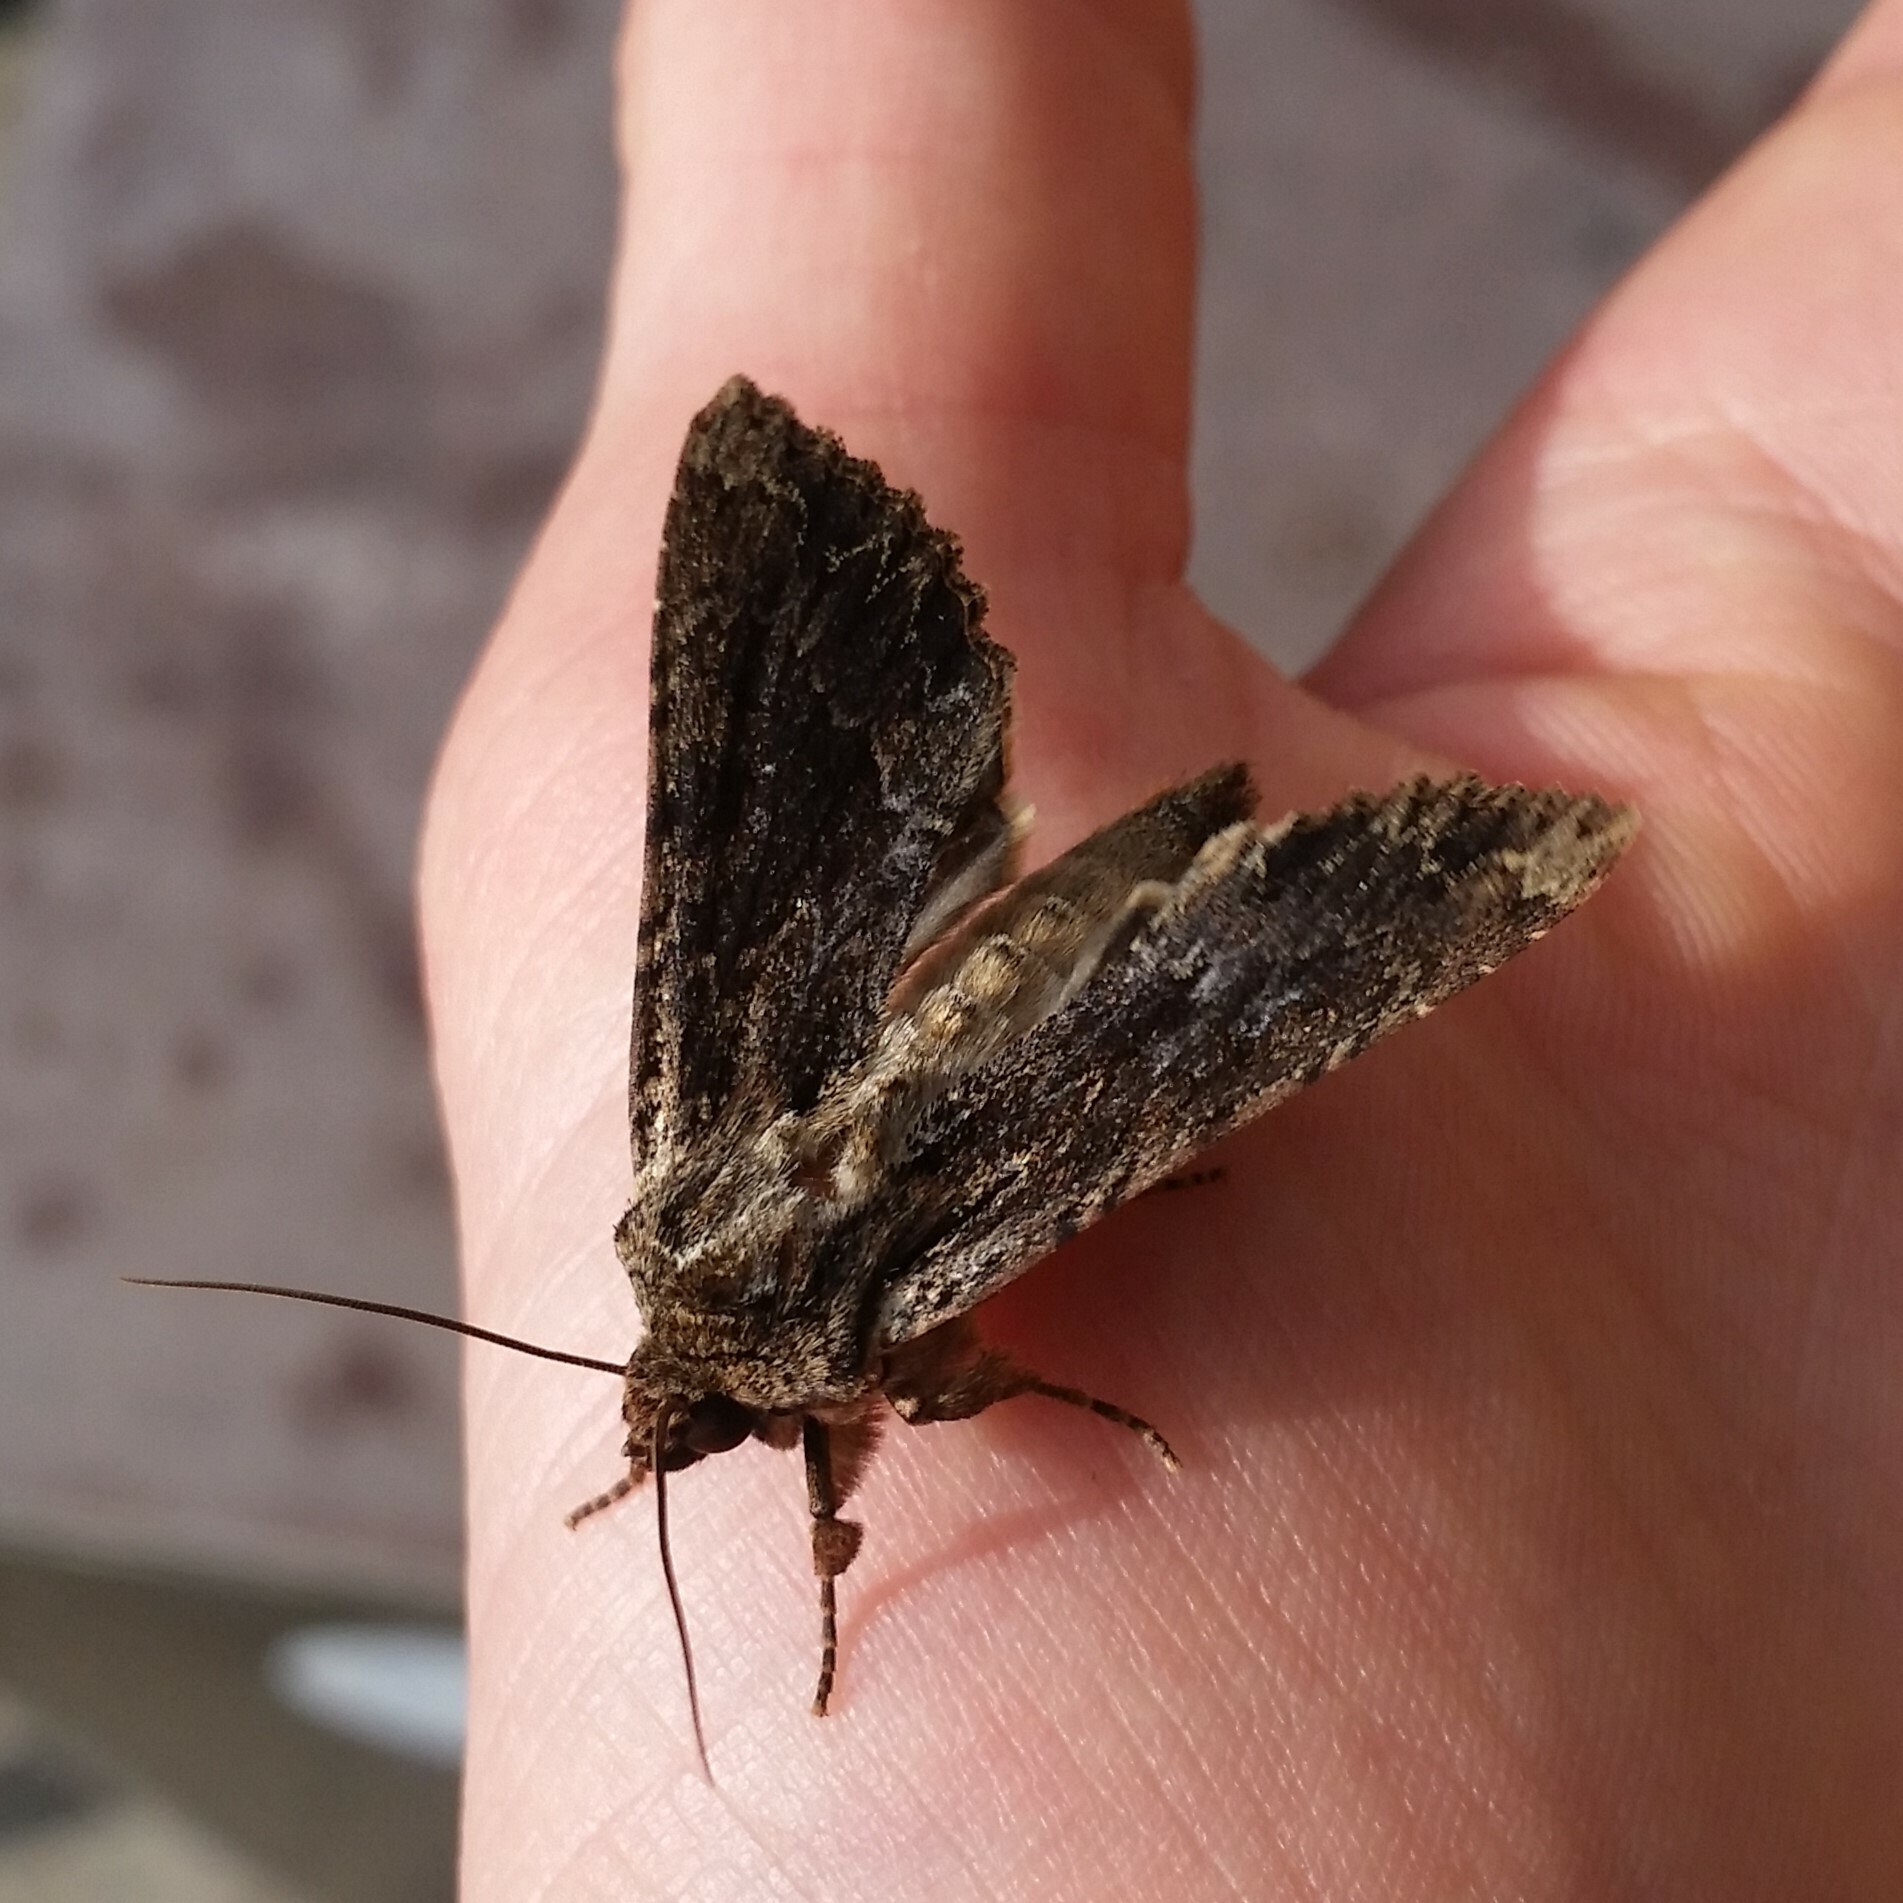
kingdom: Animalia
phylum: Arthropoda
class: Insecta
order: Lepidoptera
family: Noctuidae
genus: Apamea
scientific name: Apamea monoglypha
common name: Dark arches
